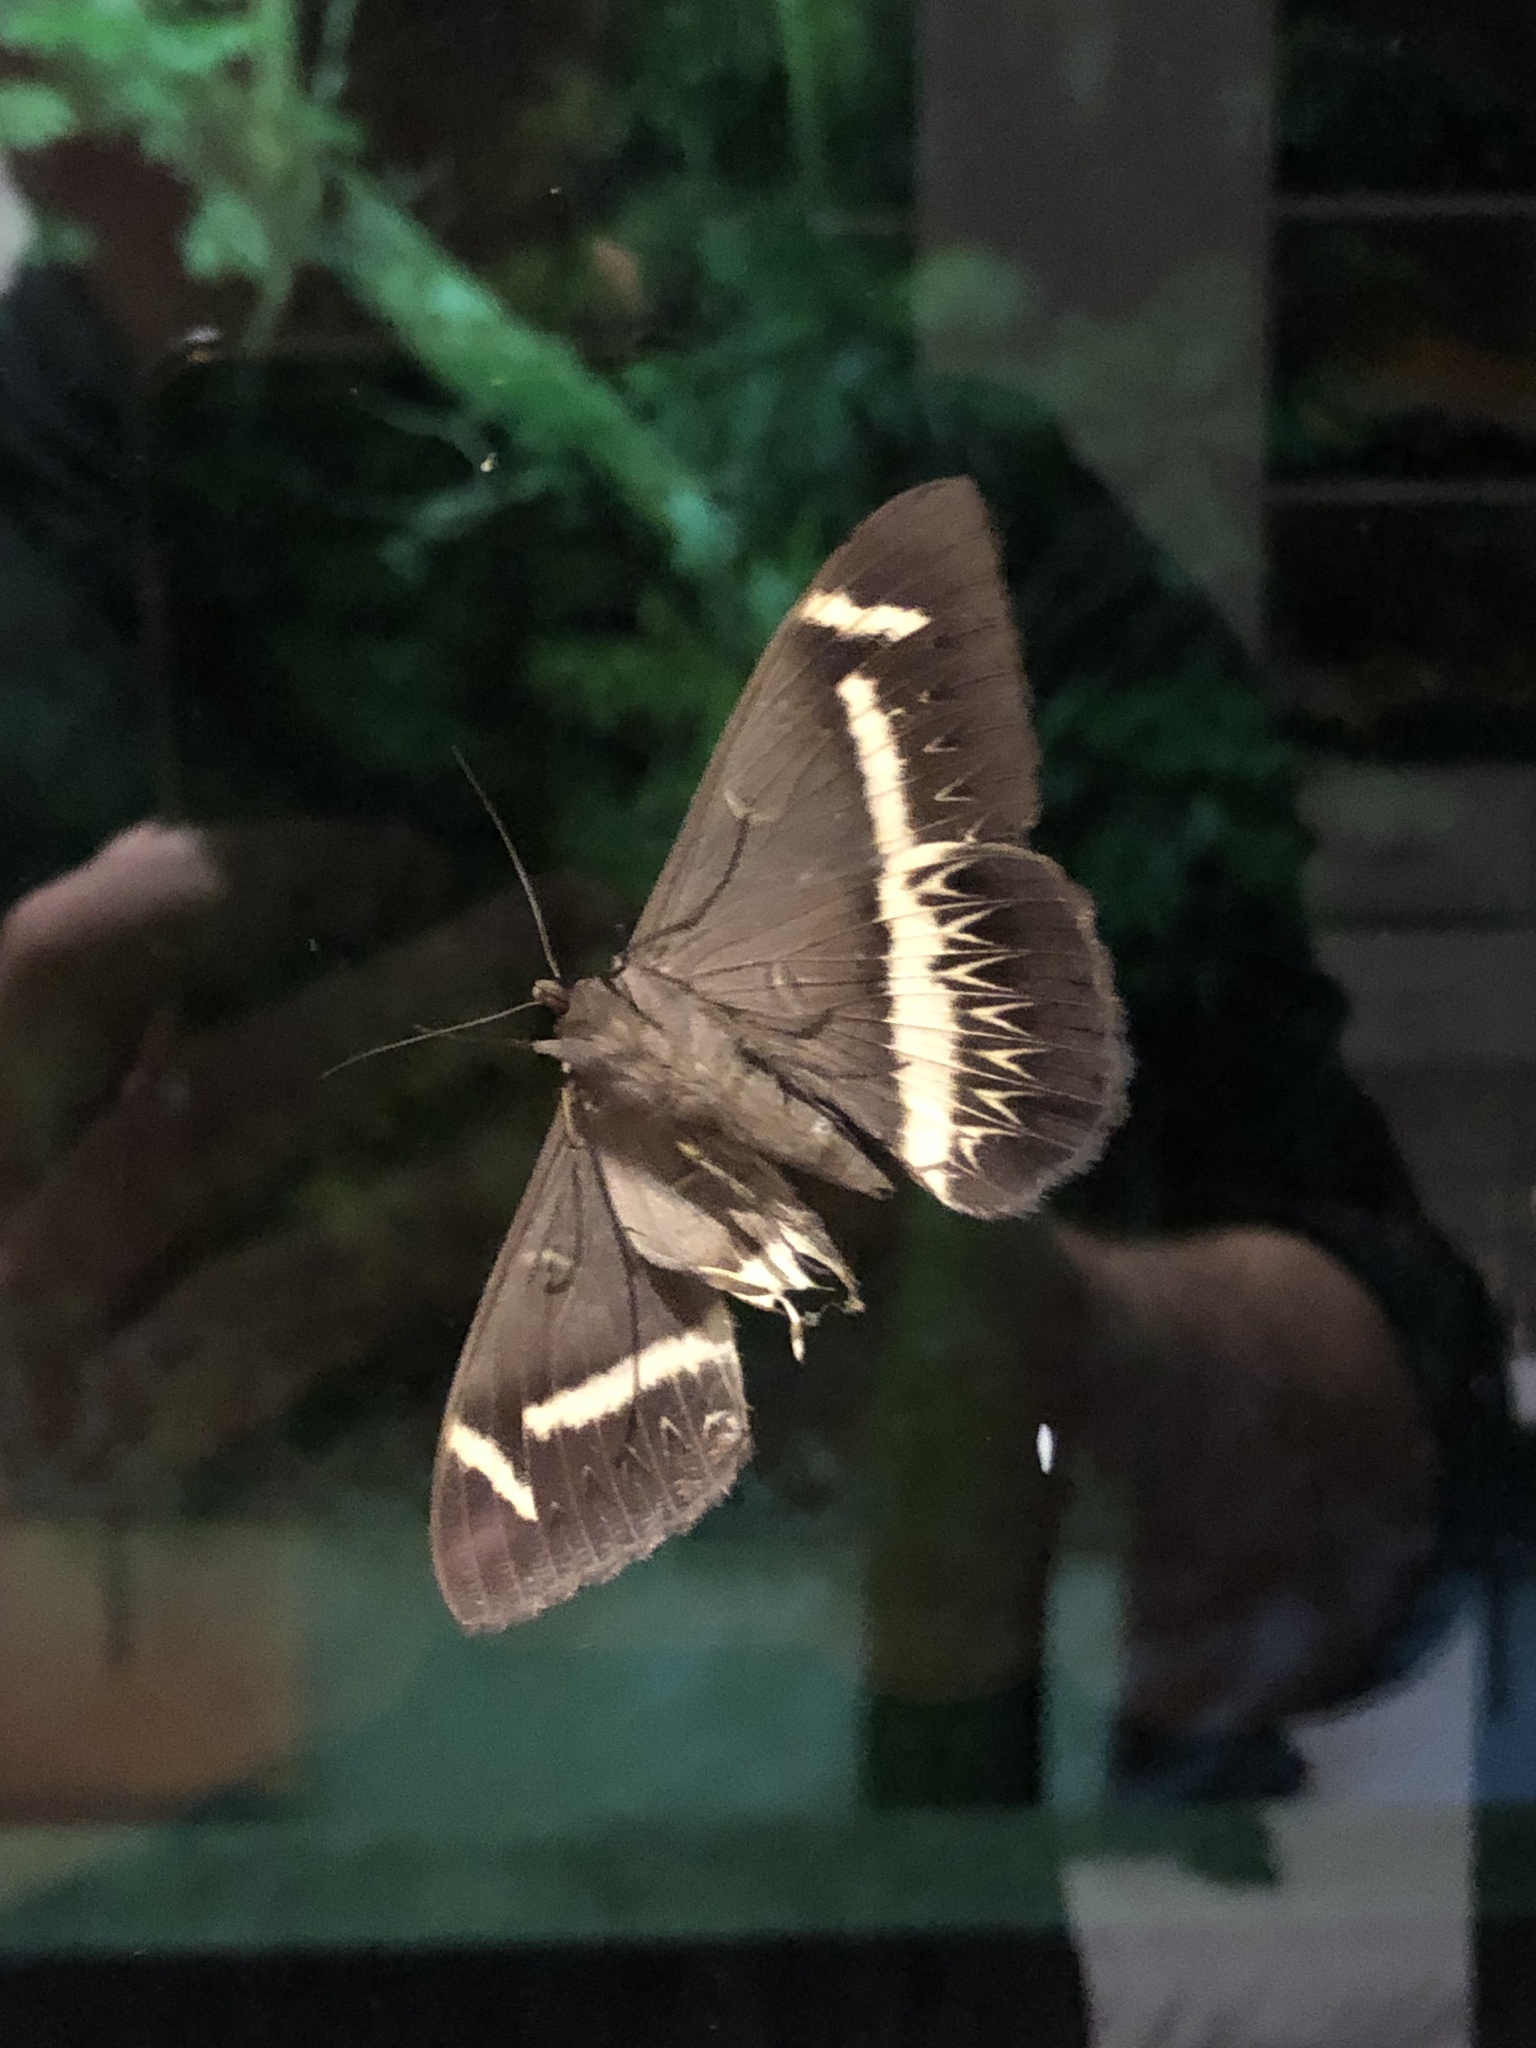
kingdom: Animalia
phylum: Arthropoda
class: Insecta
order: Lepidoptera
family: Erebidae
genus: Cyligramma
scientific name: Cyligramma latona
